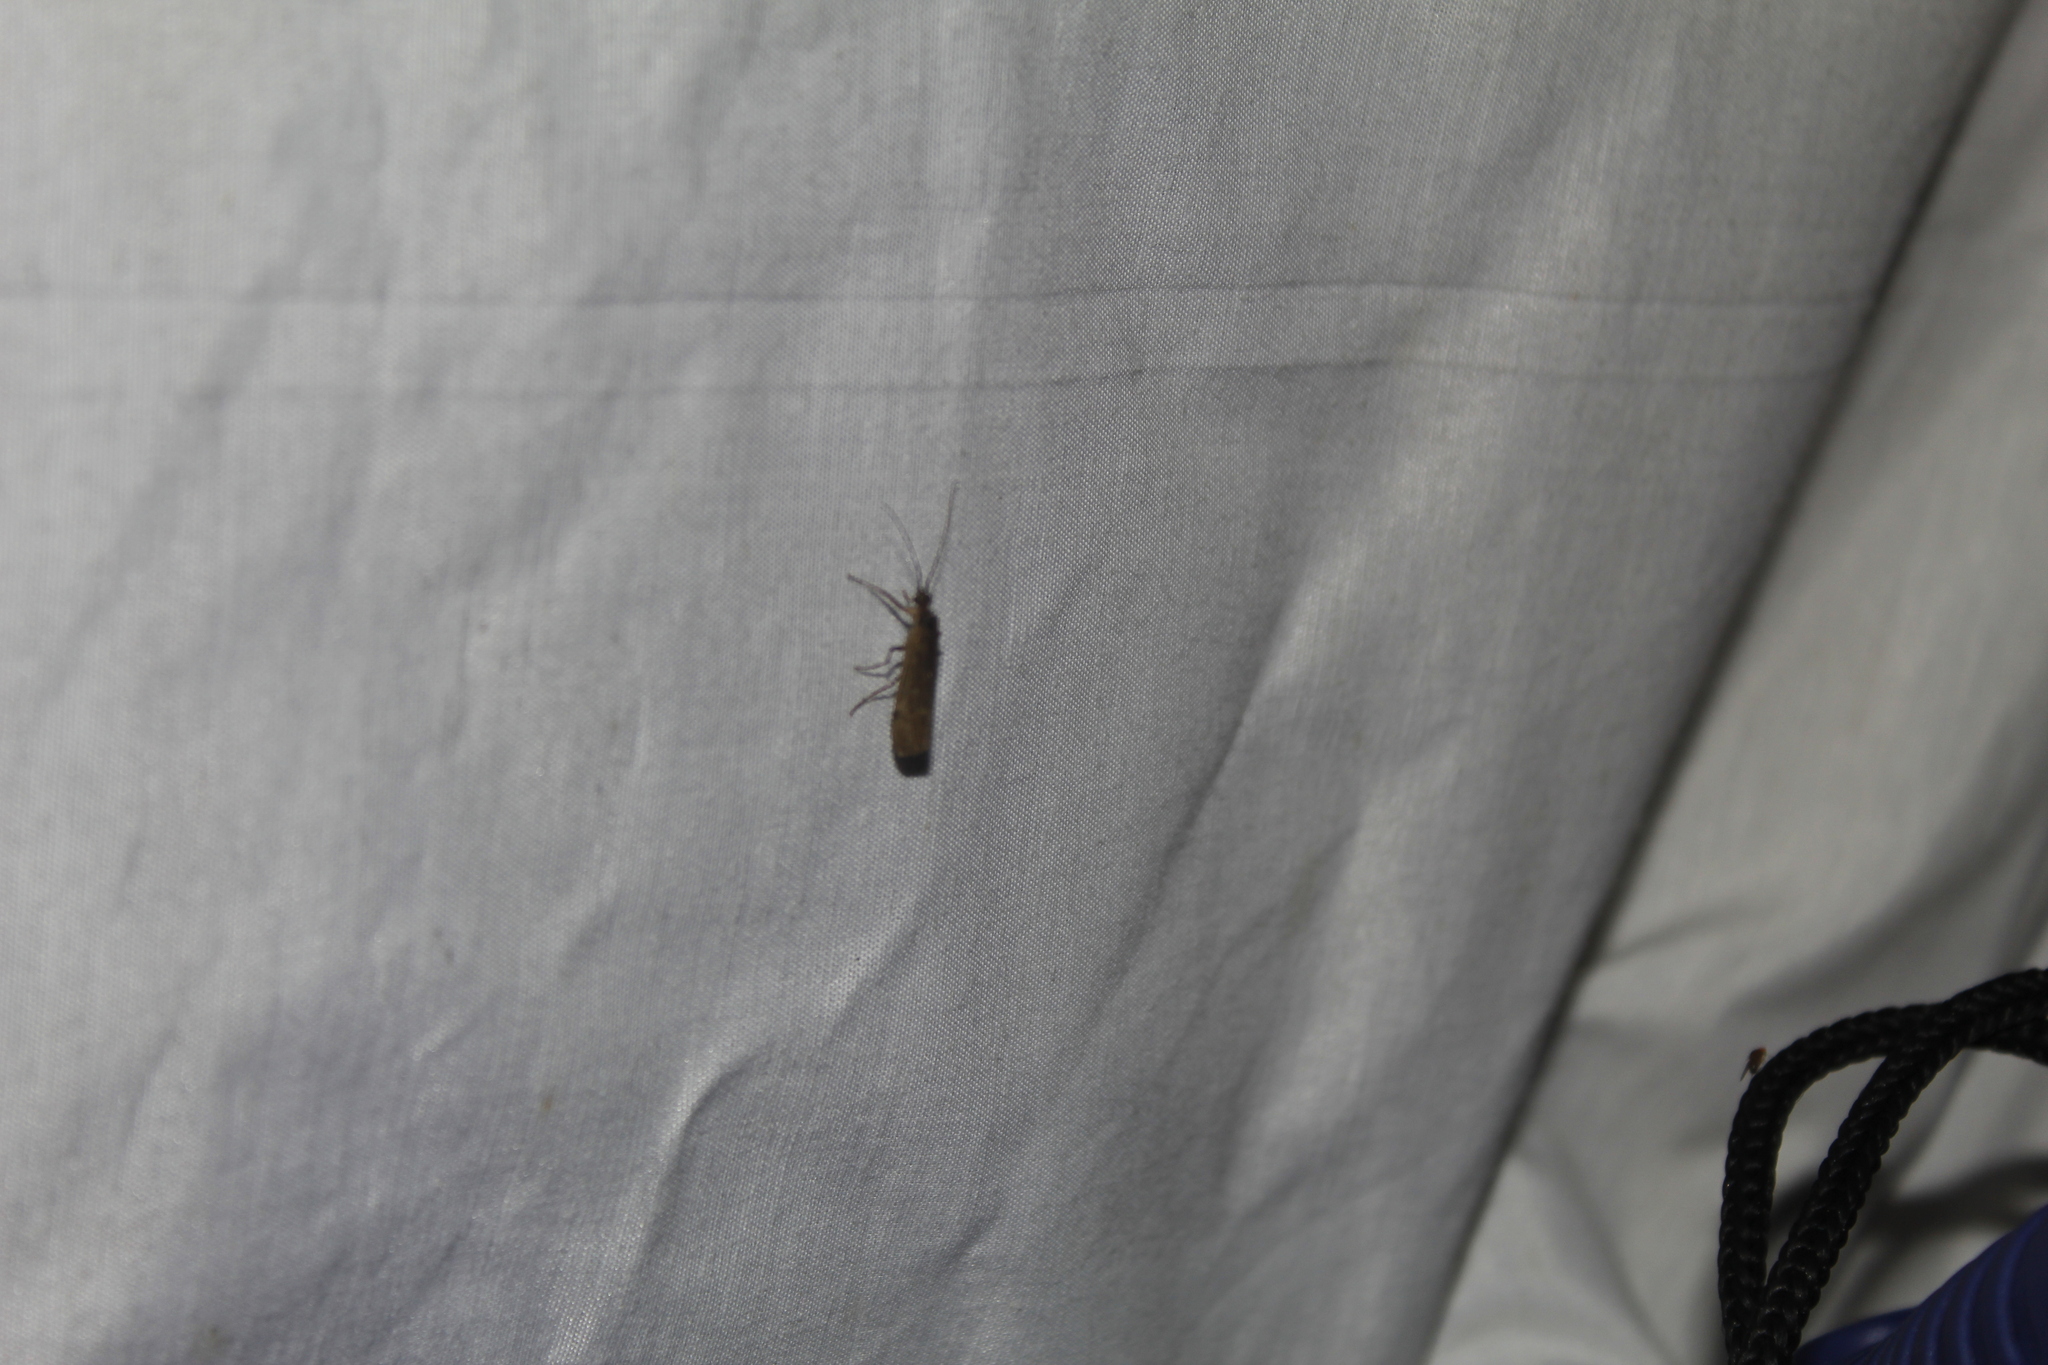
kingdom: Animalia
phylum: Arthropoda
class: Insecta
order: Trichoptera
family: Leptoceridae
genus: Mystacides
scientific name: Mystacides sepulchralis
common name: Black dancer caddisfly
